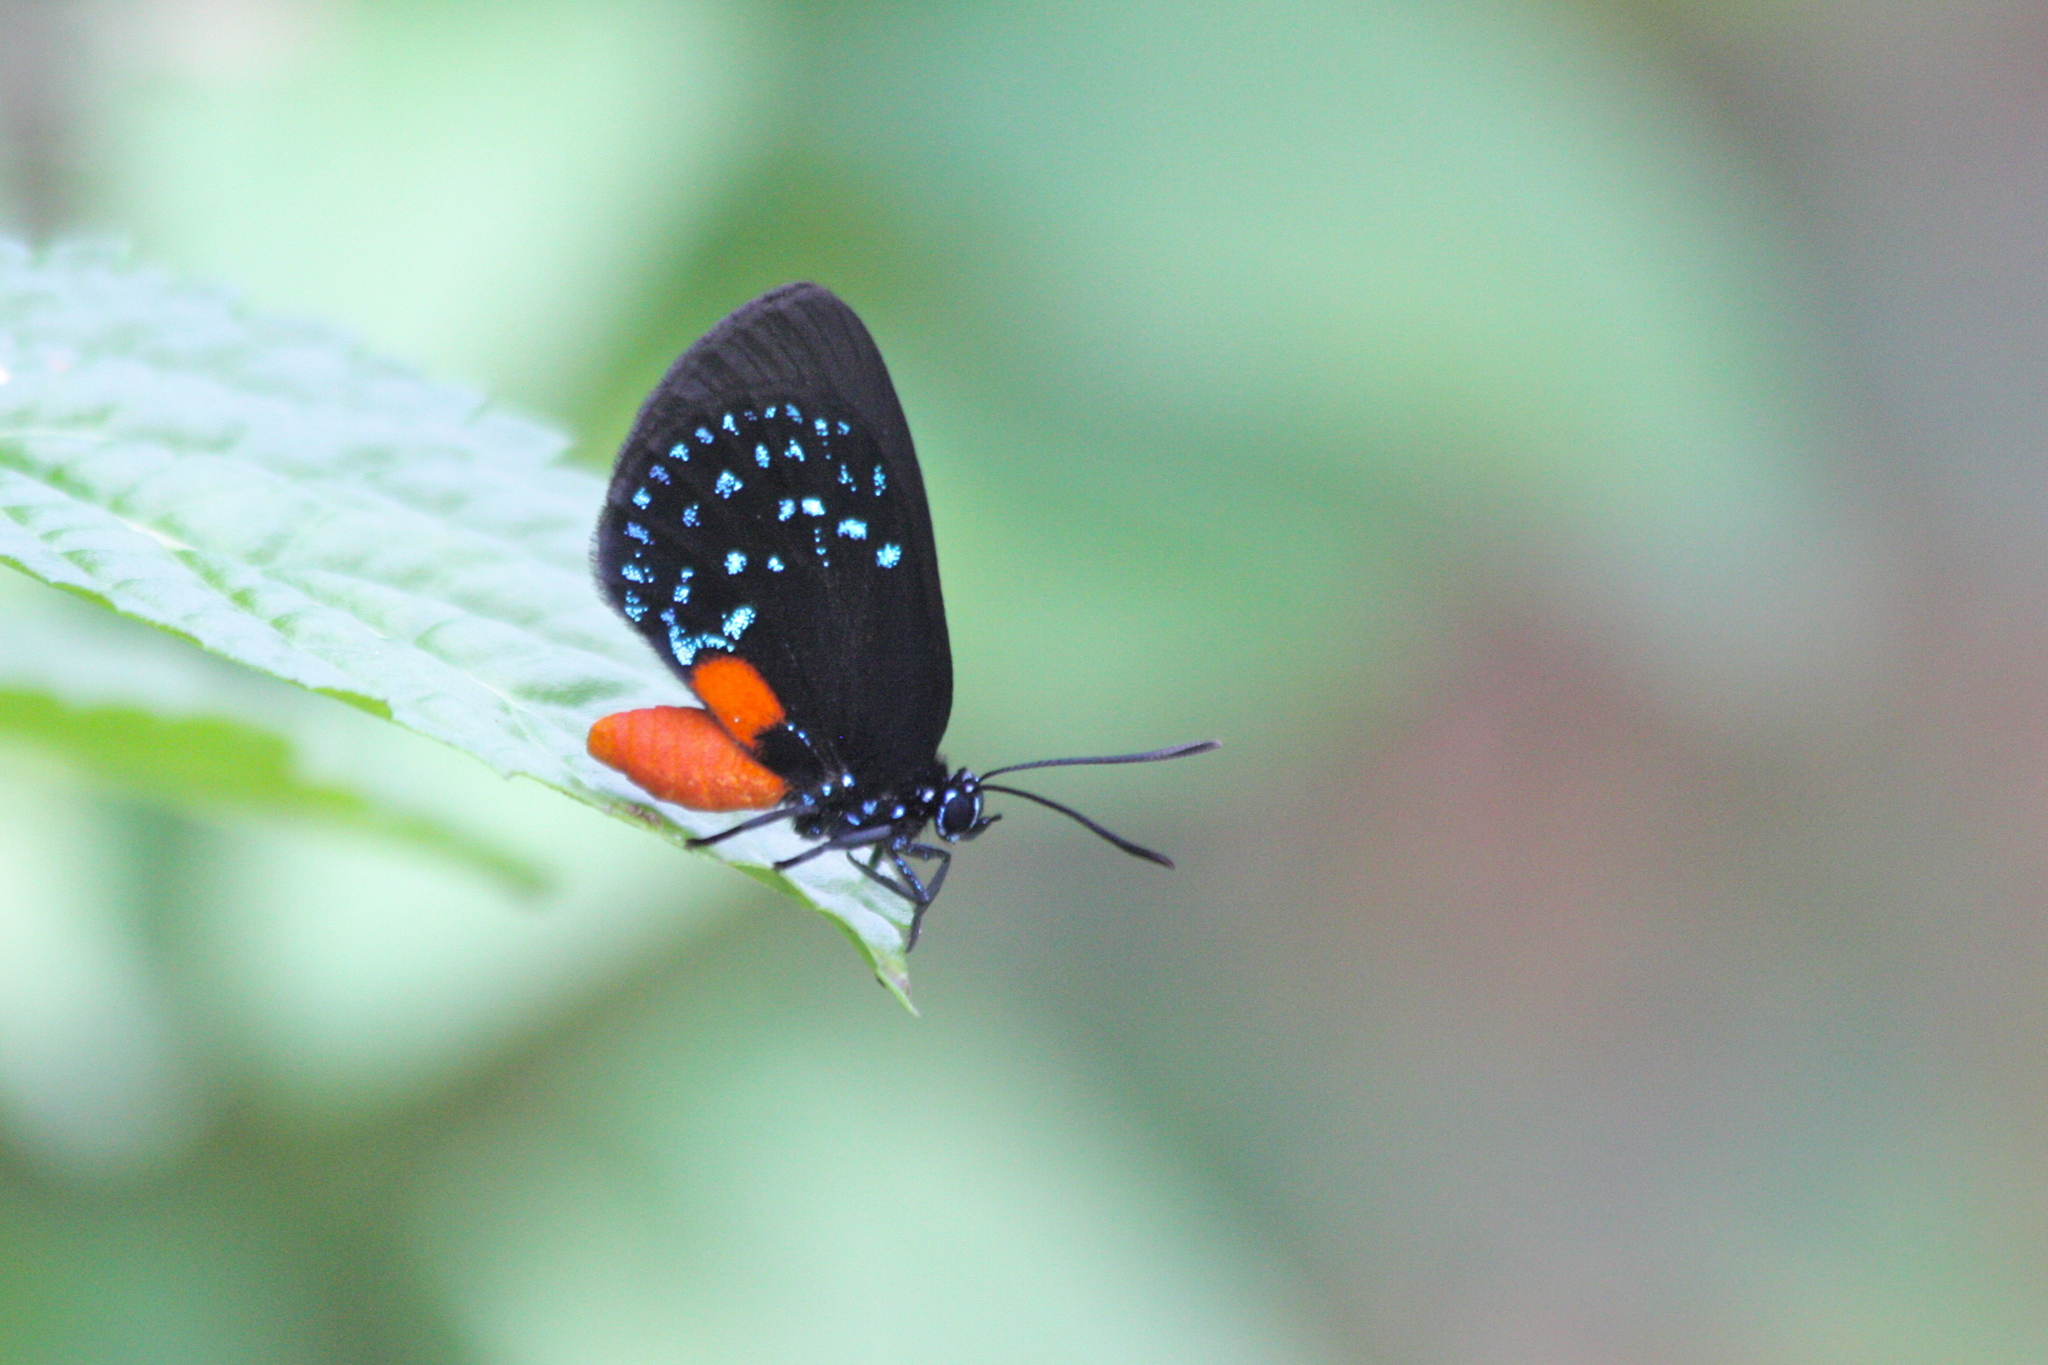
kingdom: Animalia
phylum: Arthropoda
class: Insecta
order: Lepidoptera
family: Lycaenidae
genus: Eumaeus
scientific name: Eumaeus atala
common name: Atala
